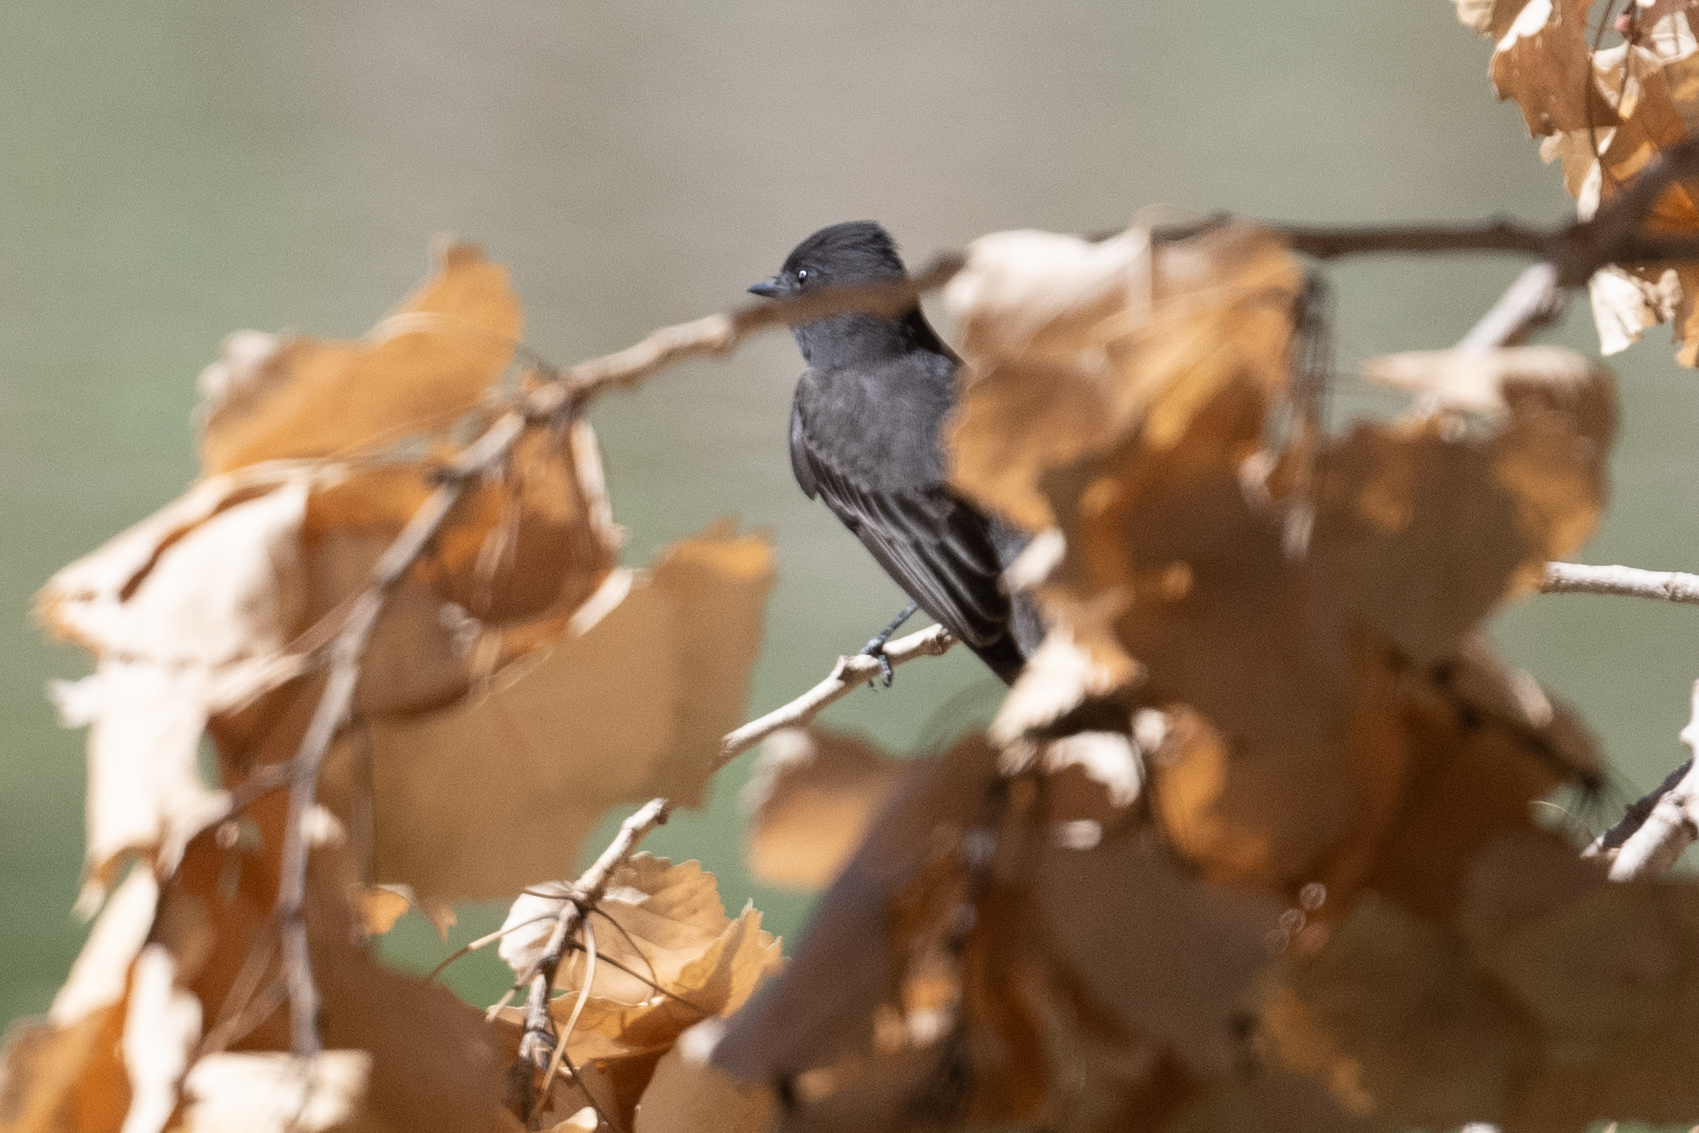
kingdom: Animalia
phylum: Chordata
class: Aves
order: Passeriformes
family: Tyrannidae
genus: Sayornis
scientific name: Sayornis nigricans
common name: Black phoebe
